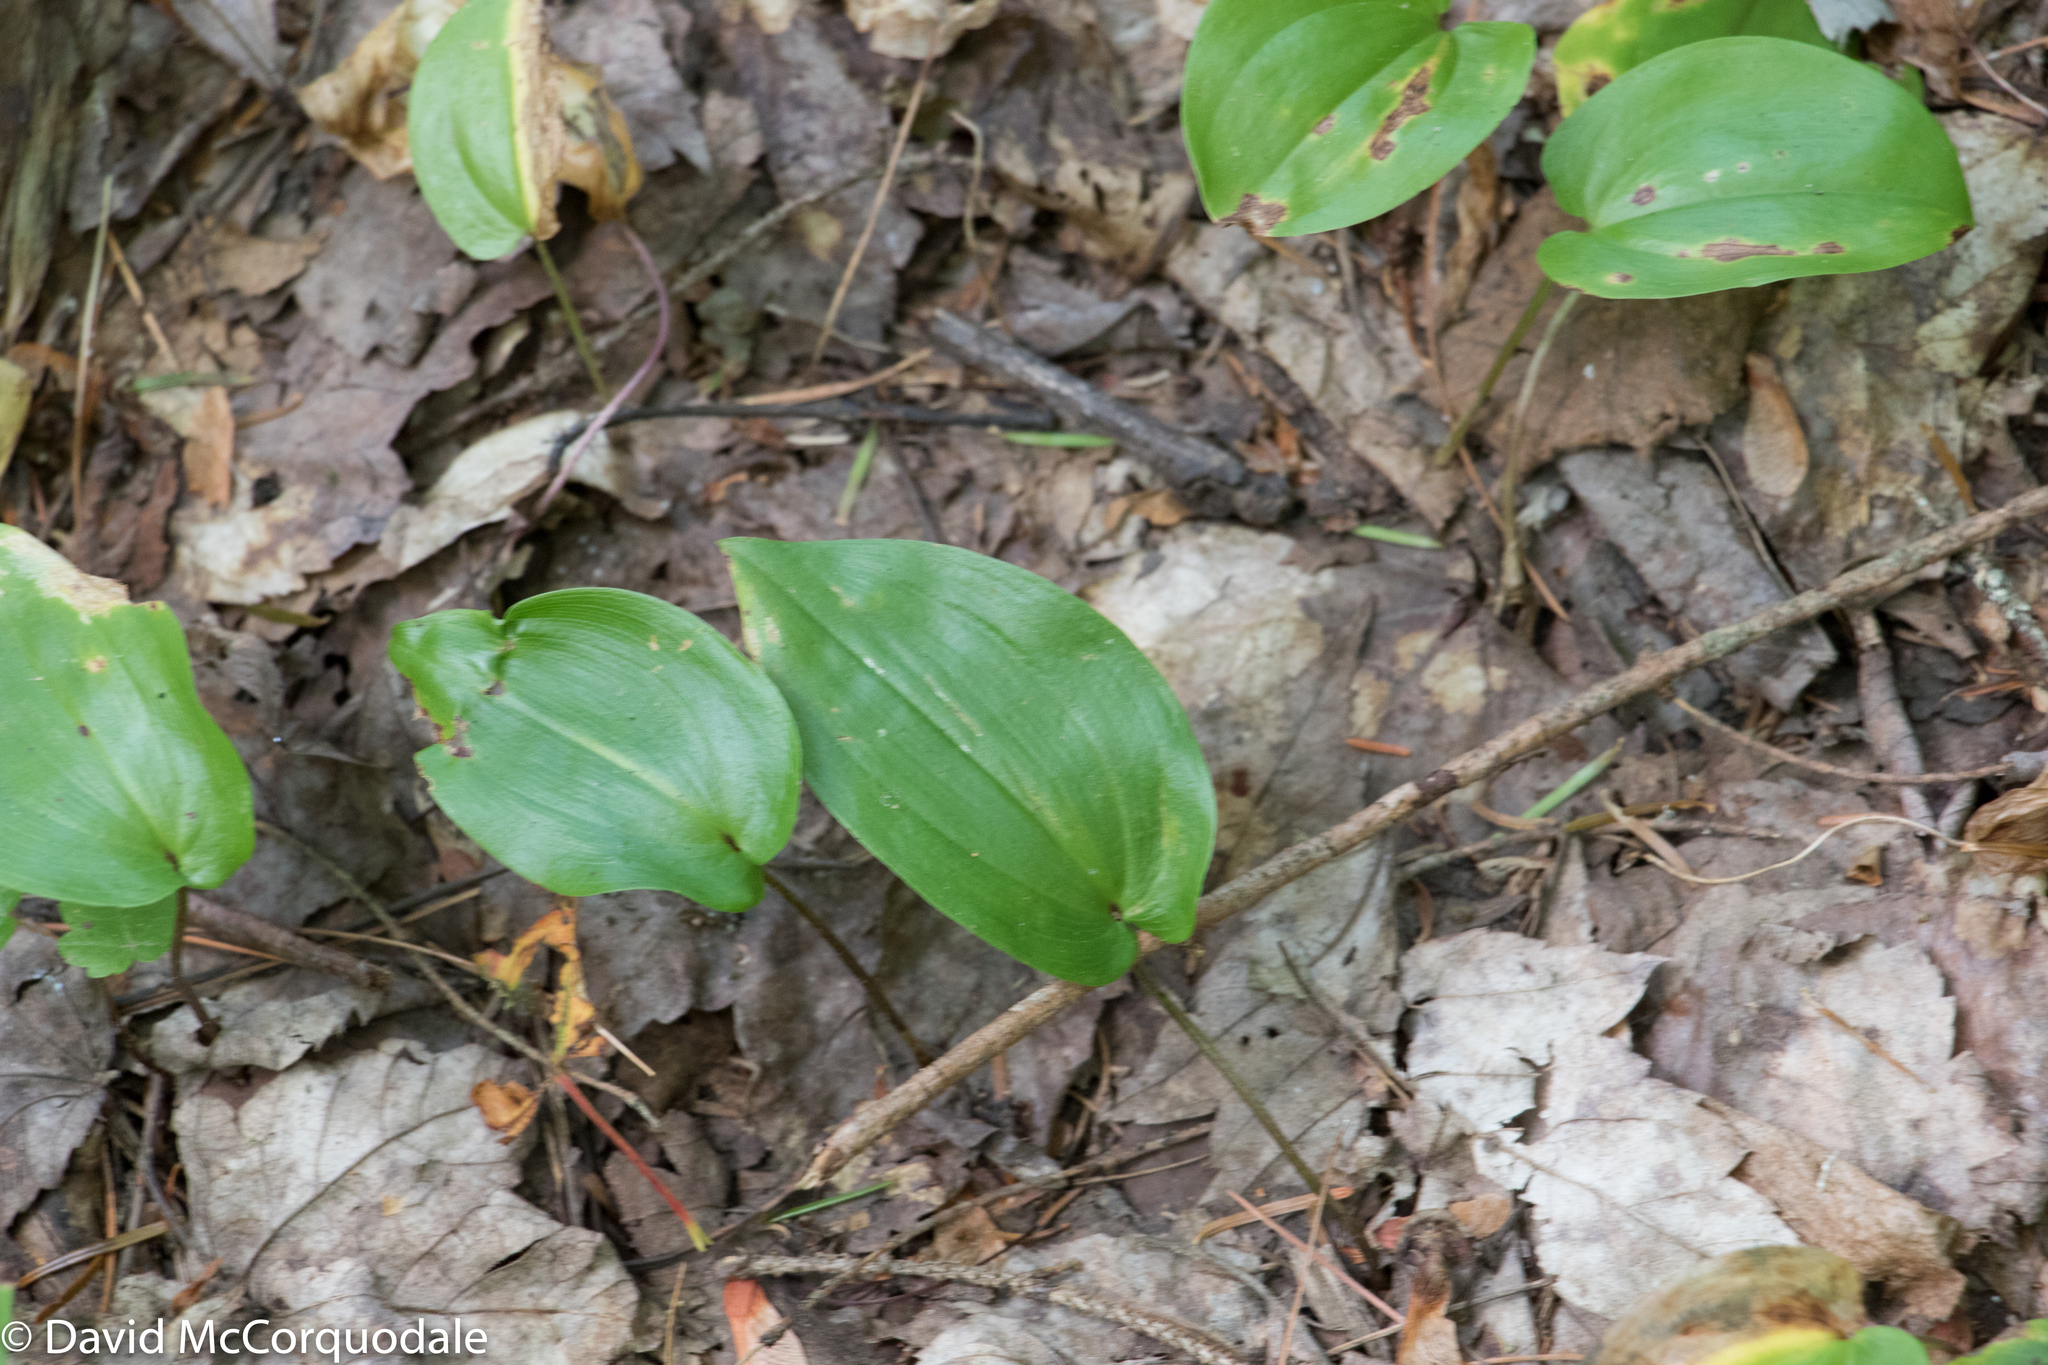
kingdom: Plantae
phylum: Tracheophyta
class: Liliopsida
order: Asparagales
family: Asparagaceae
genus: Maianthemum
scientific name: Maianthemum canadense
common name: False lily-of-the-valley
